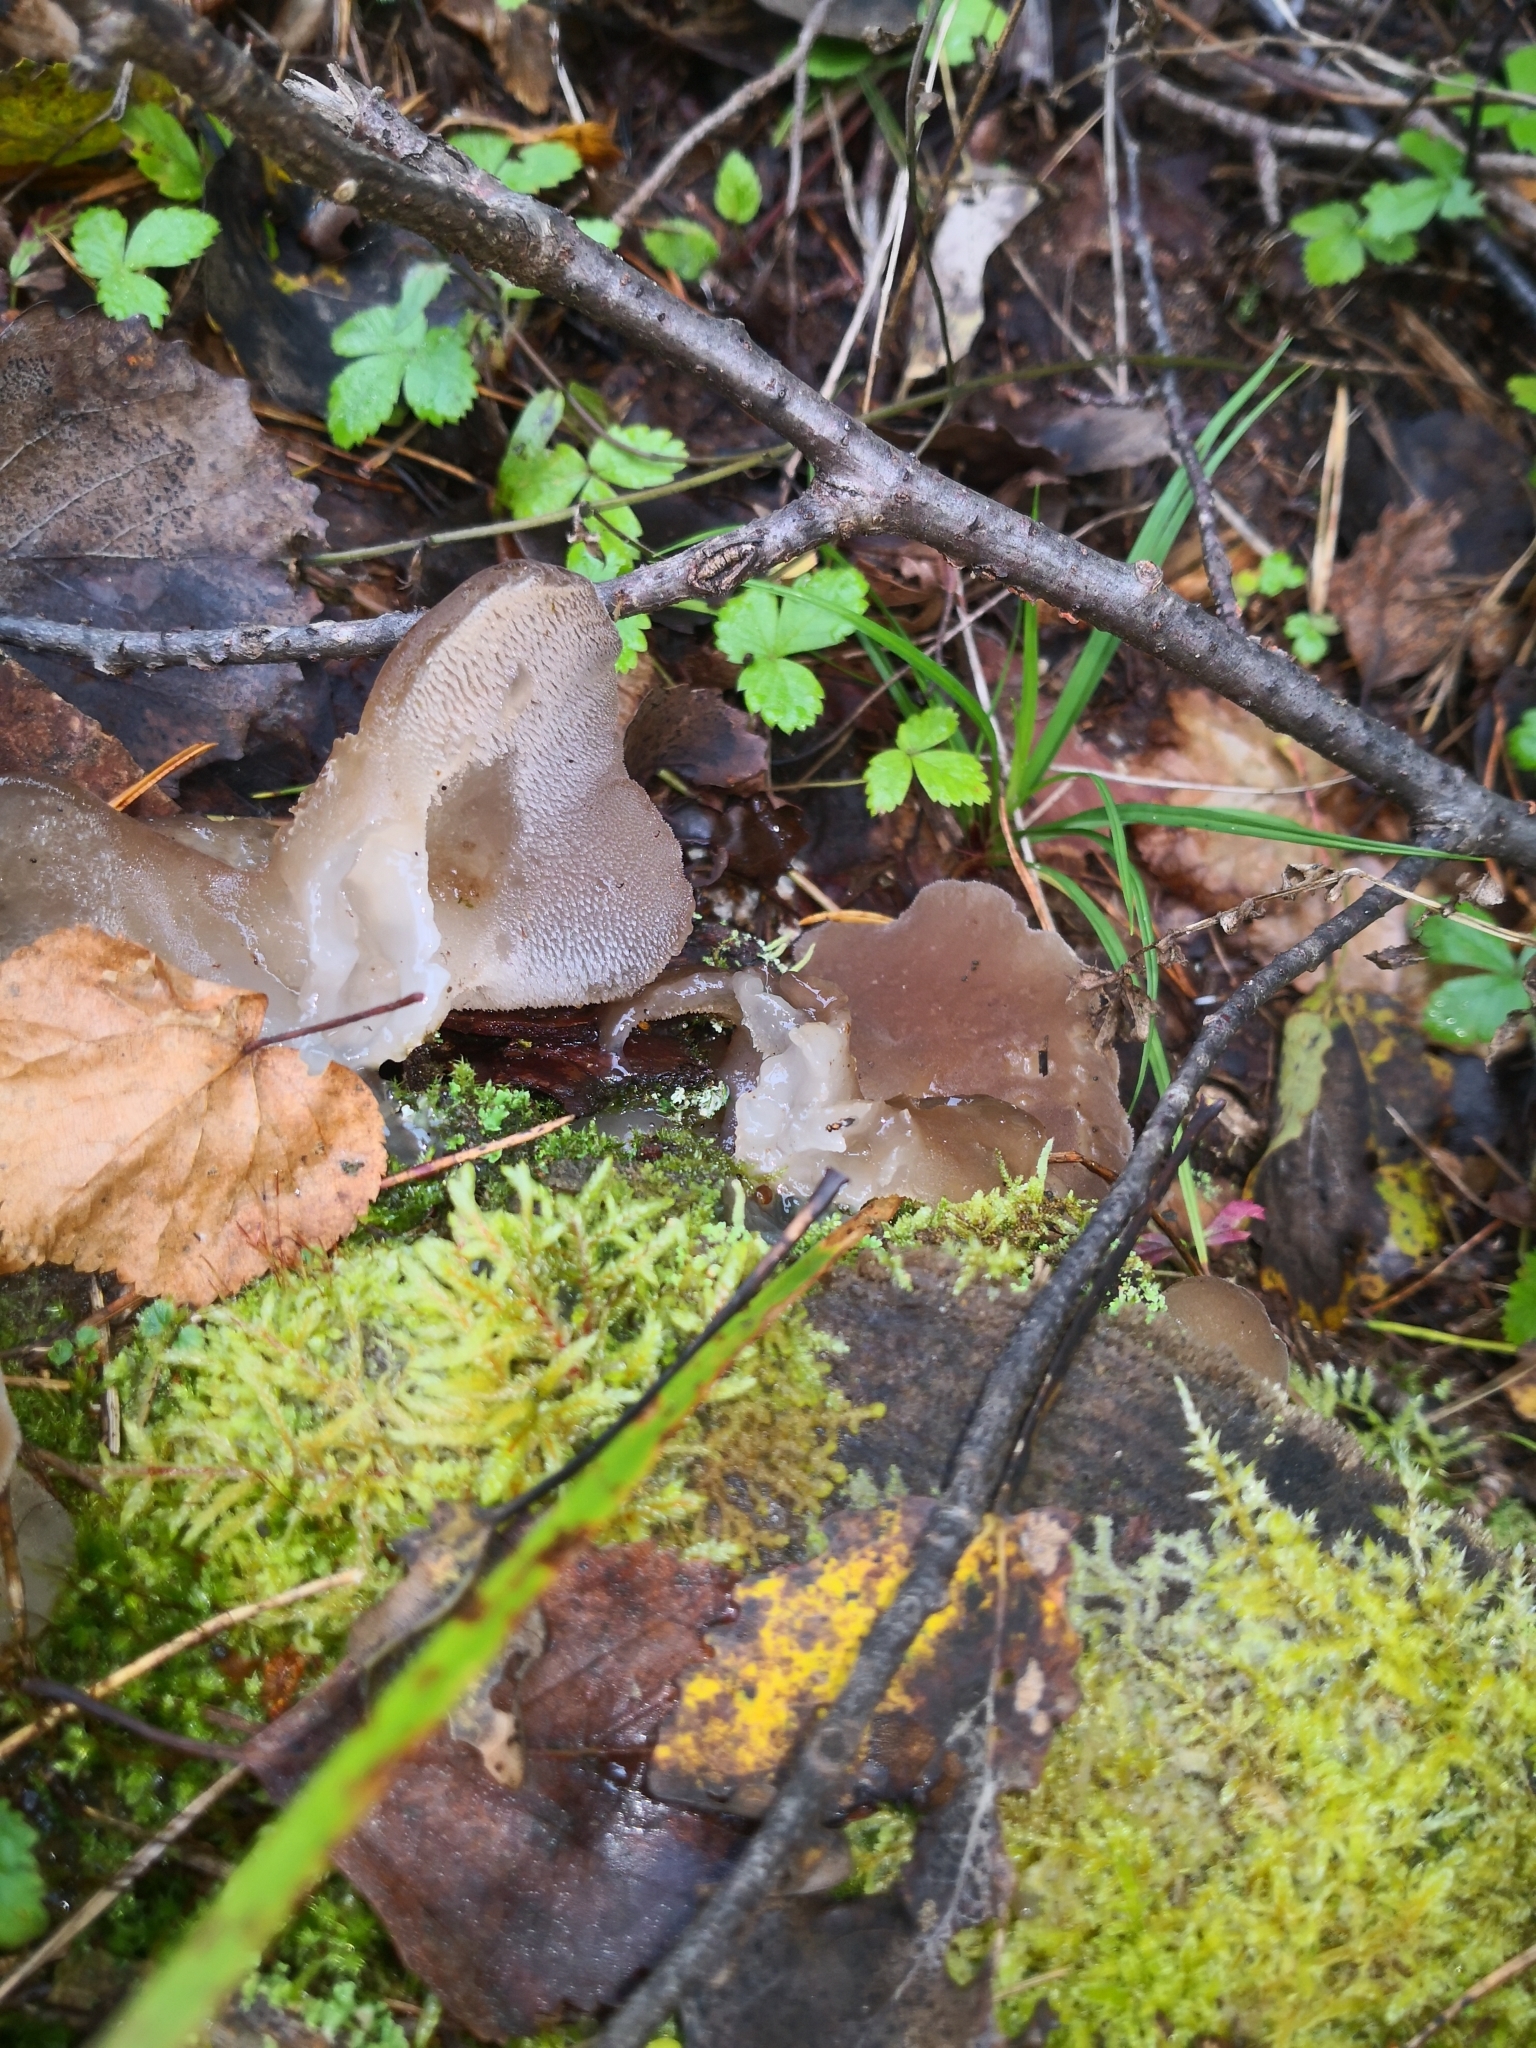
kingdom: Fungi
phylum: Basidiomycota
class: Agaricomycetes
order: Auriculariales
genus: Pseudohydnum
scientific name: Pseudohydnum gelatinosum
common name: Jelly tongue
